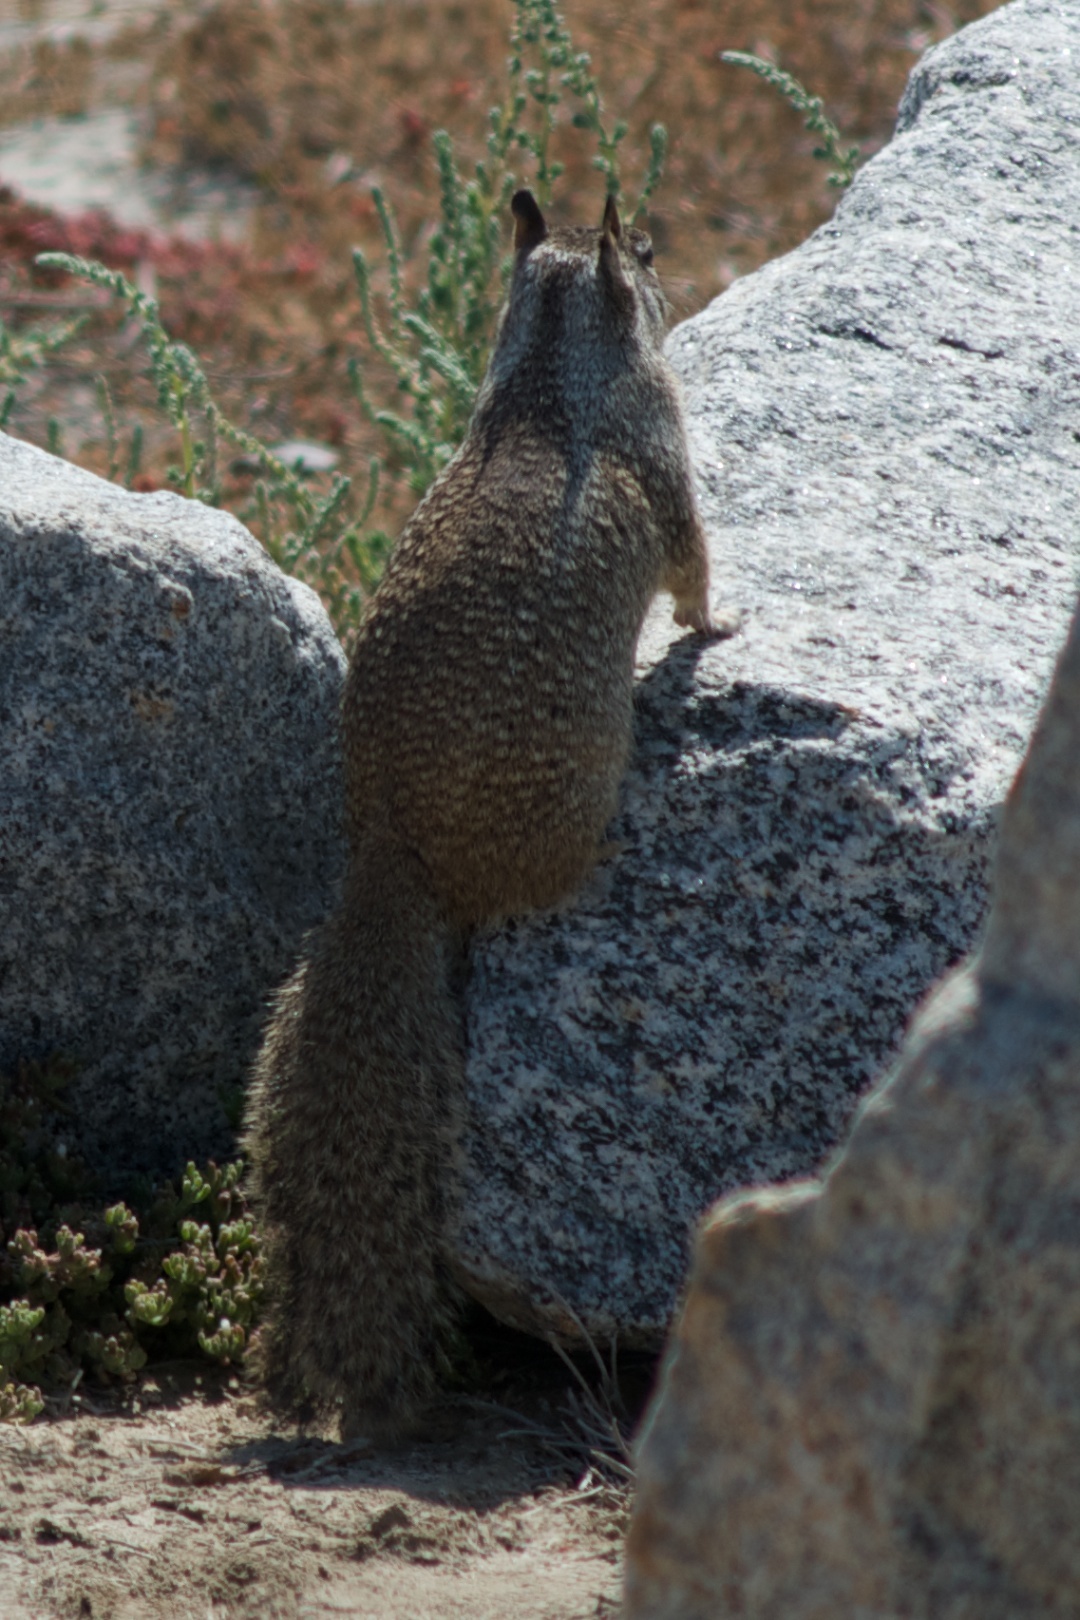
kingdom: Animalia
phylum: Chordata
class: Mammalia
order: Rodentia
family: Sciuridae
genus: Otospermophilus
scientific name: Otospermophilus beecheyi
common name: California ground squirrel
